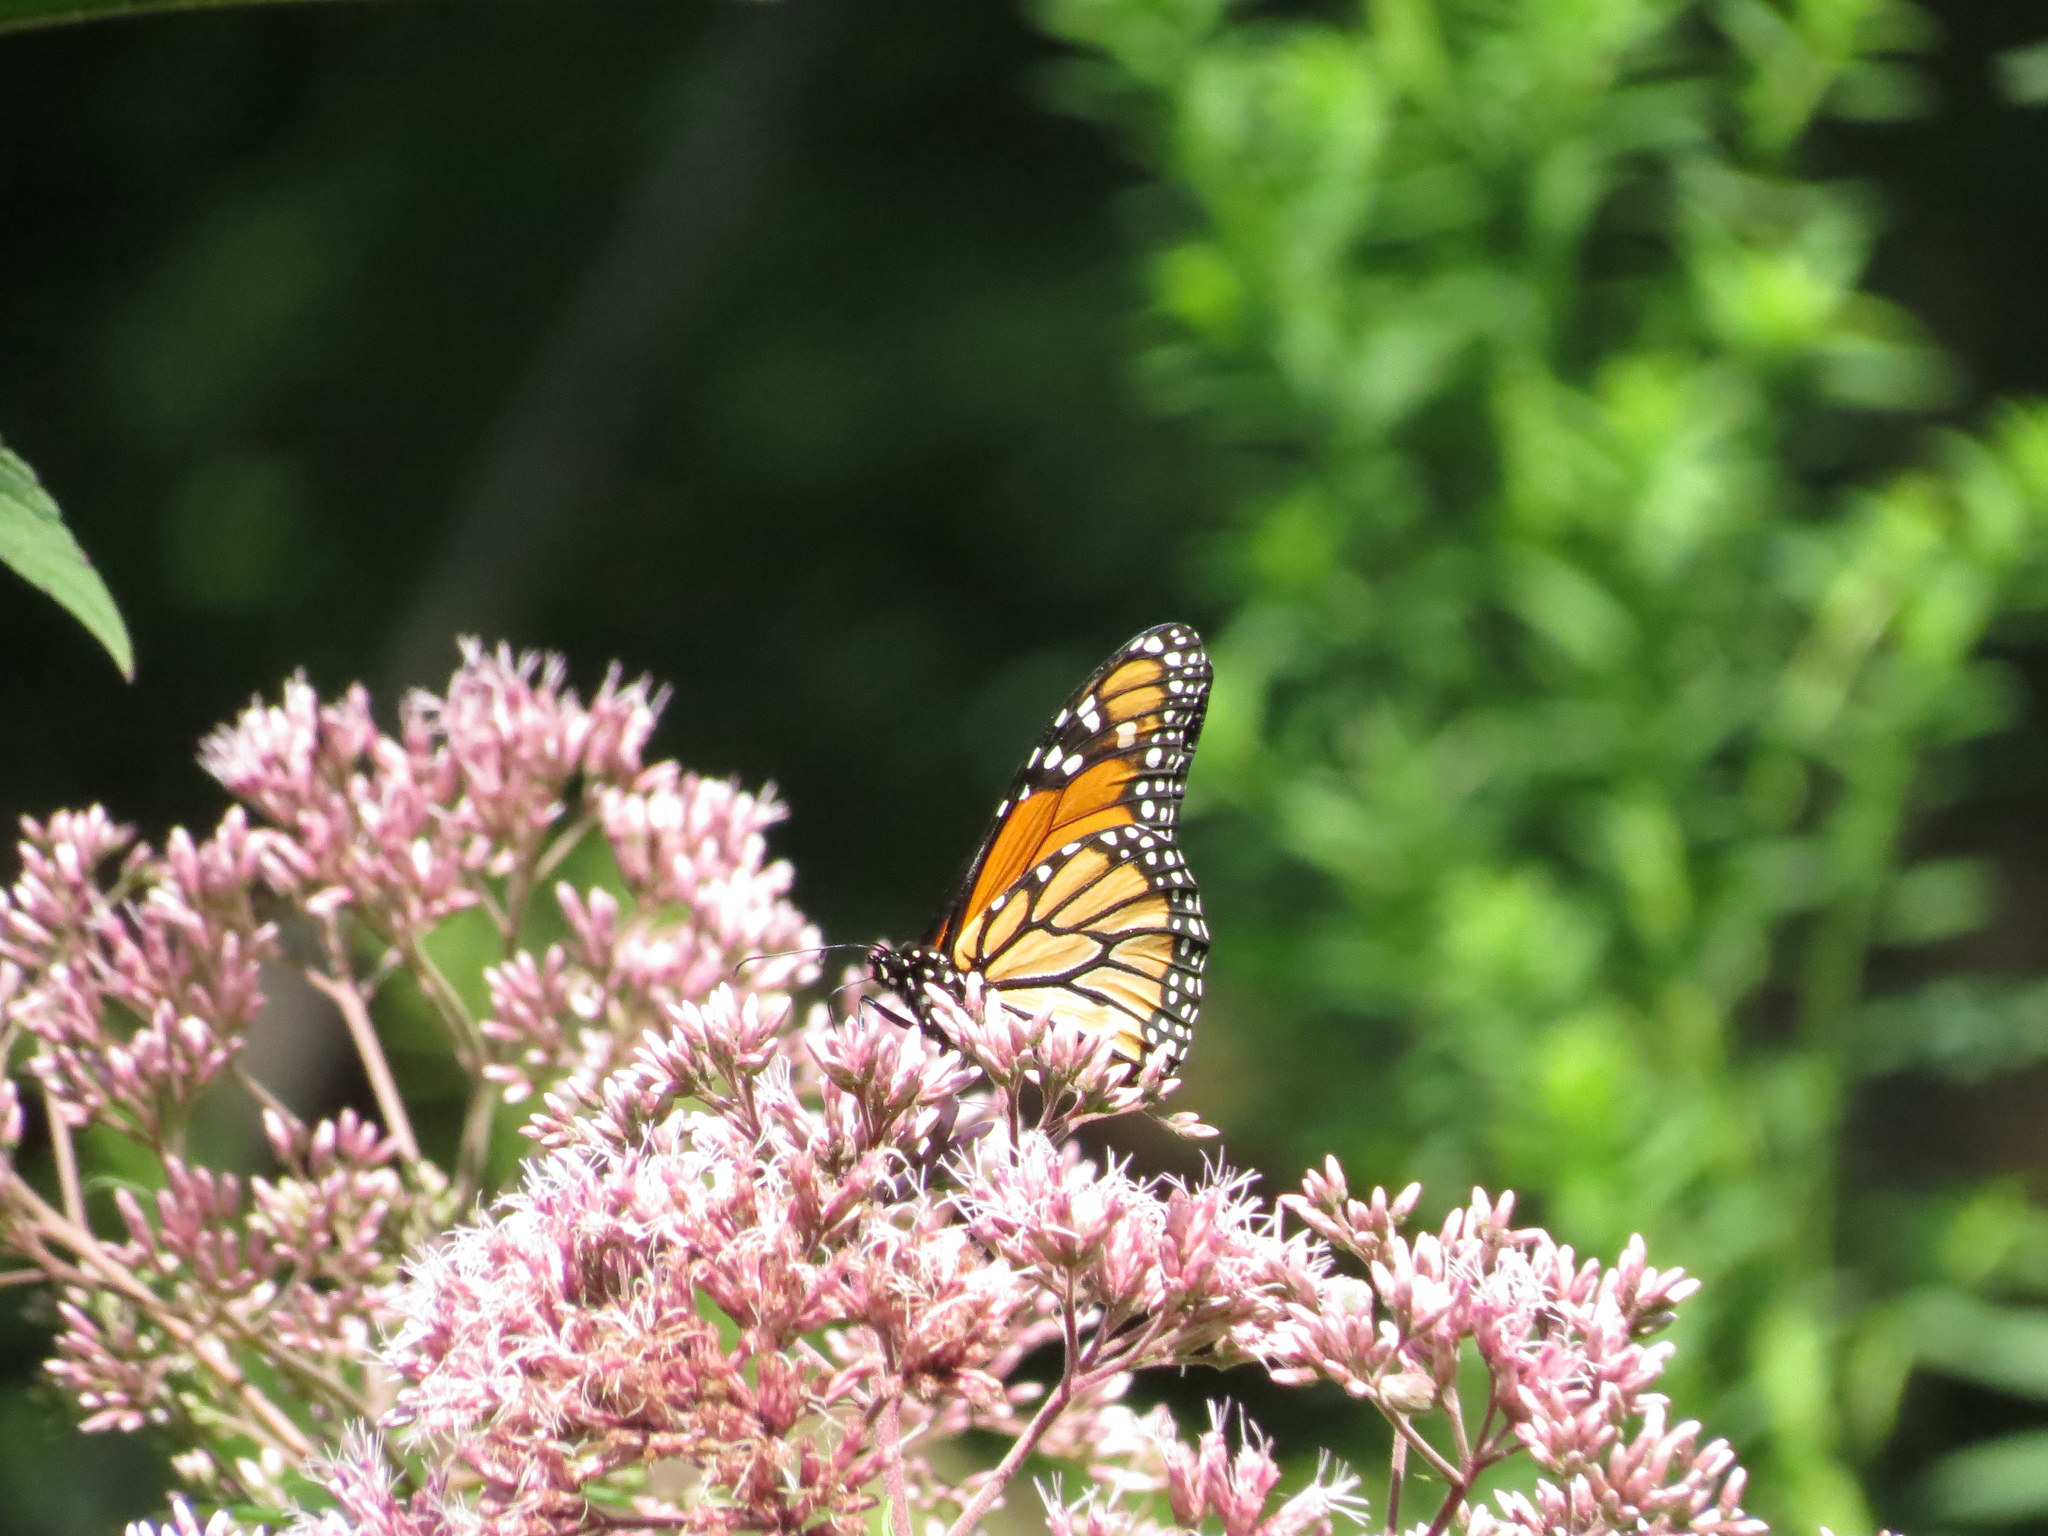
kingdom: Animalia
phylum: Arthropoda
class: Insecta
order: Lepidoptera
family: Nymphalidae
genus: Danaus
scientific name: Danaus plexippus
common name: Monarch
